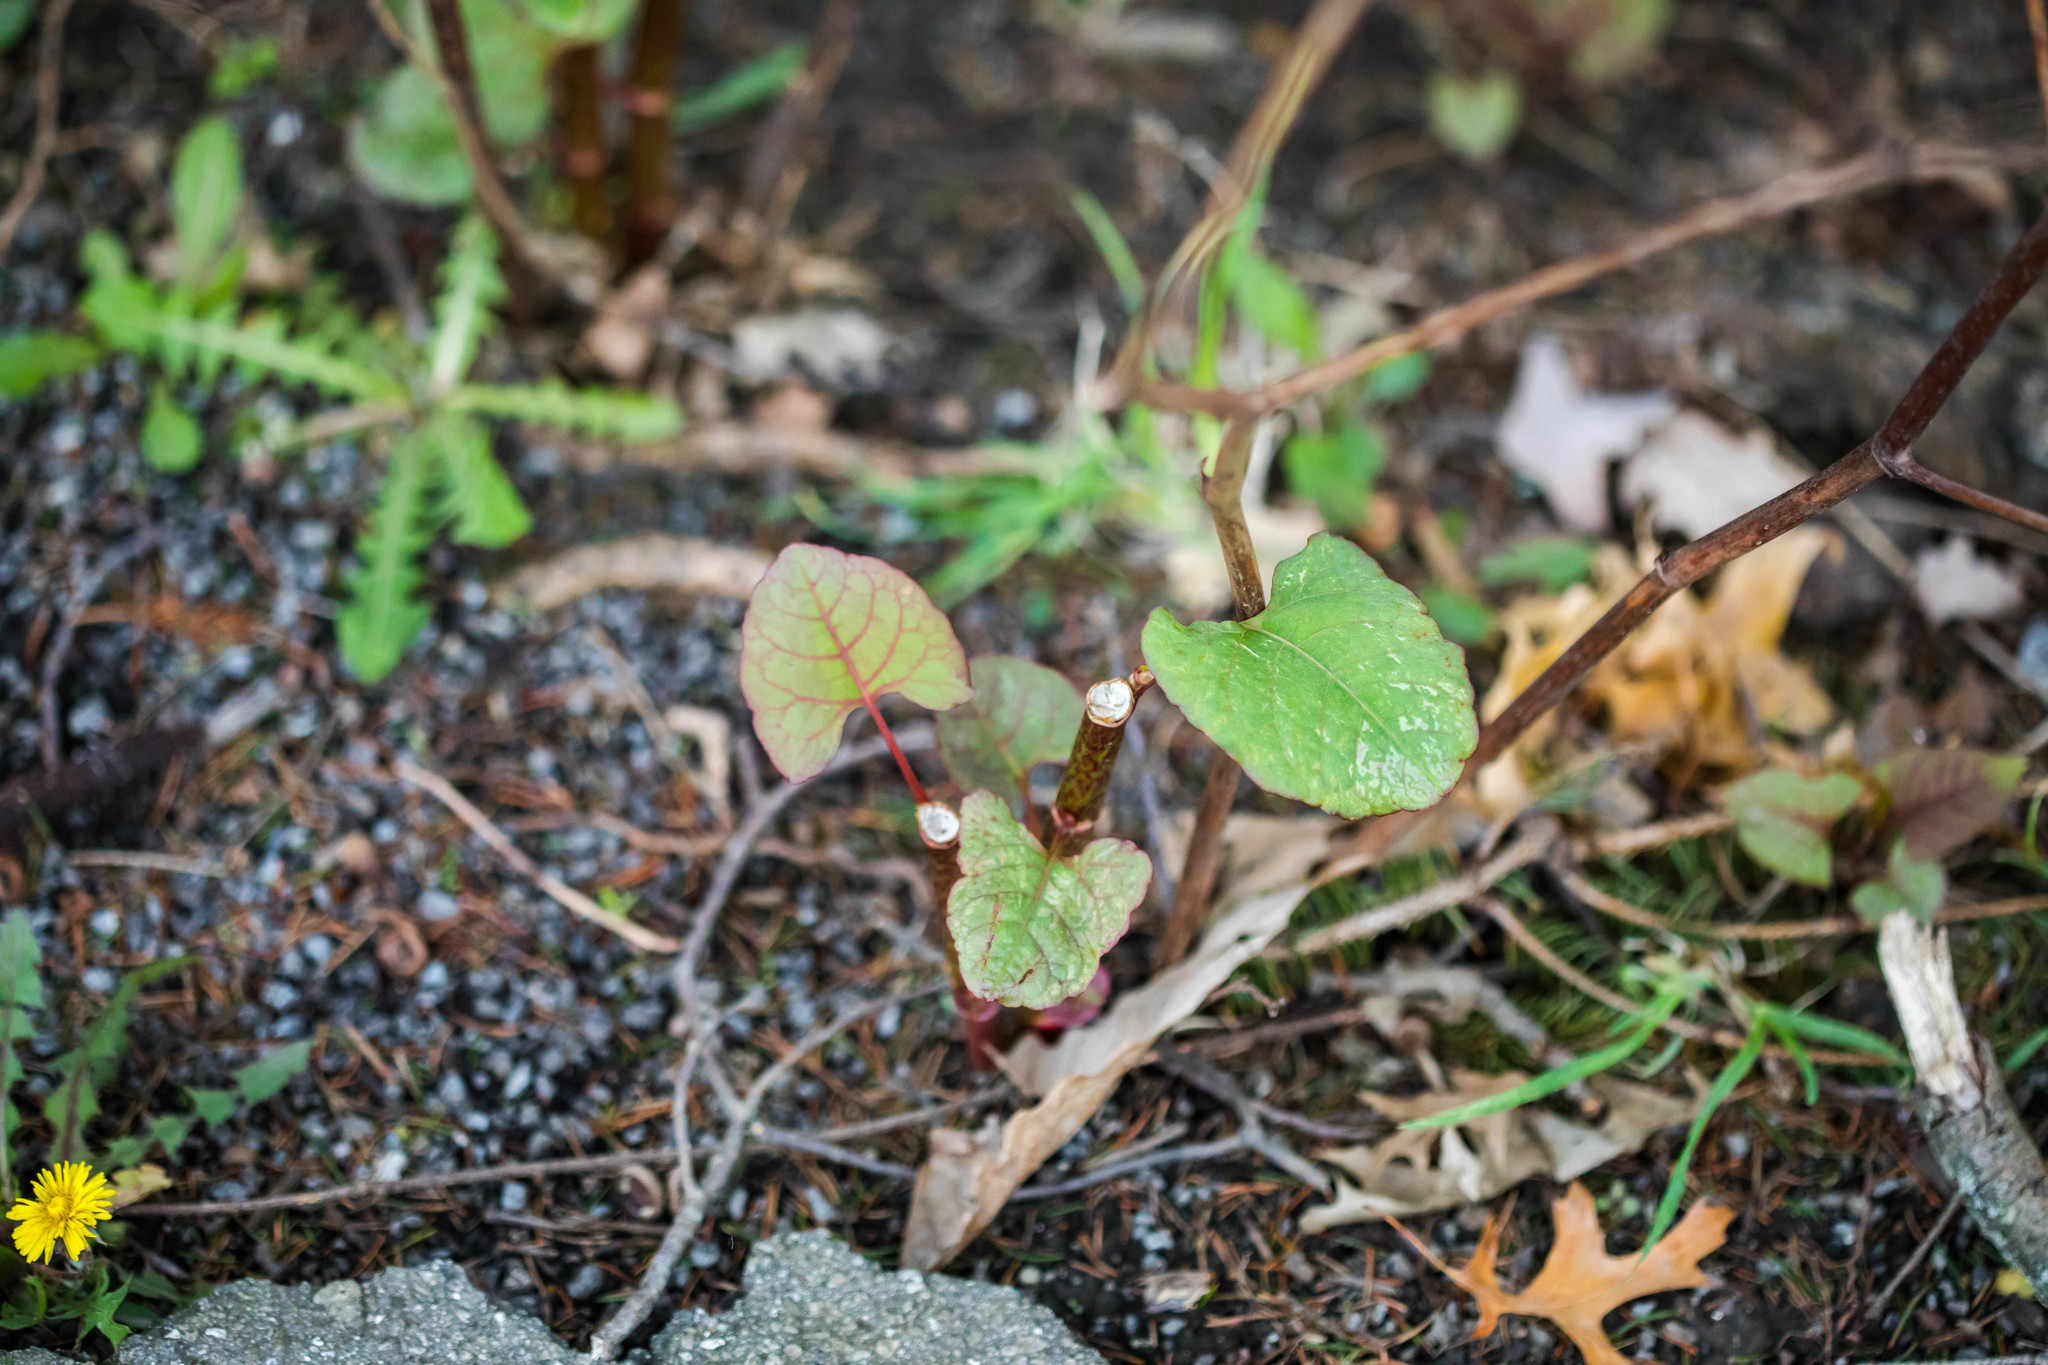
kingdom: Plantae
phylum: Tracheophyta
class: Magnoliopsida
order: Caryophyllales
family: Polygonaceae
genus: Reynoutria
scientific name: Reynoutria japonica
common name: Japanese knotweed
